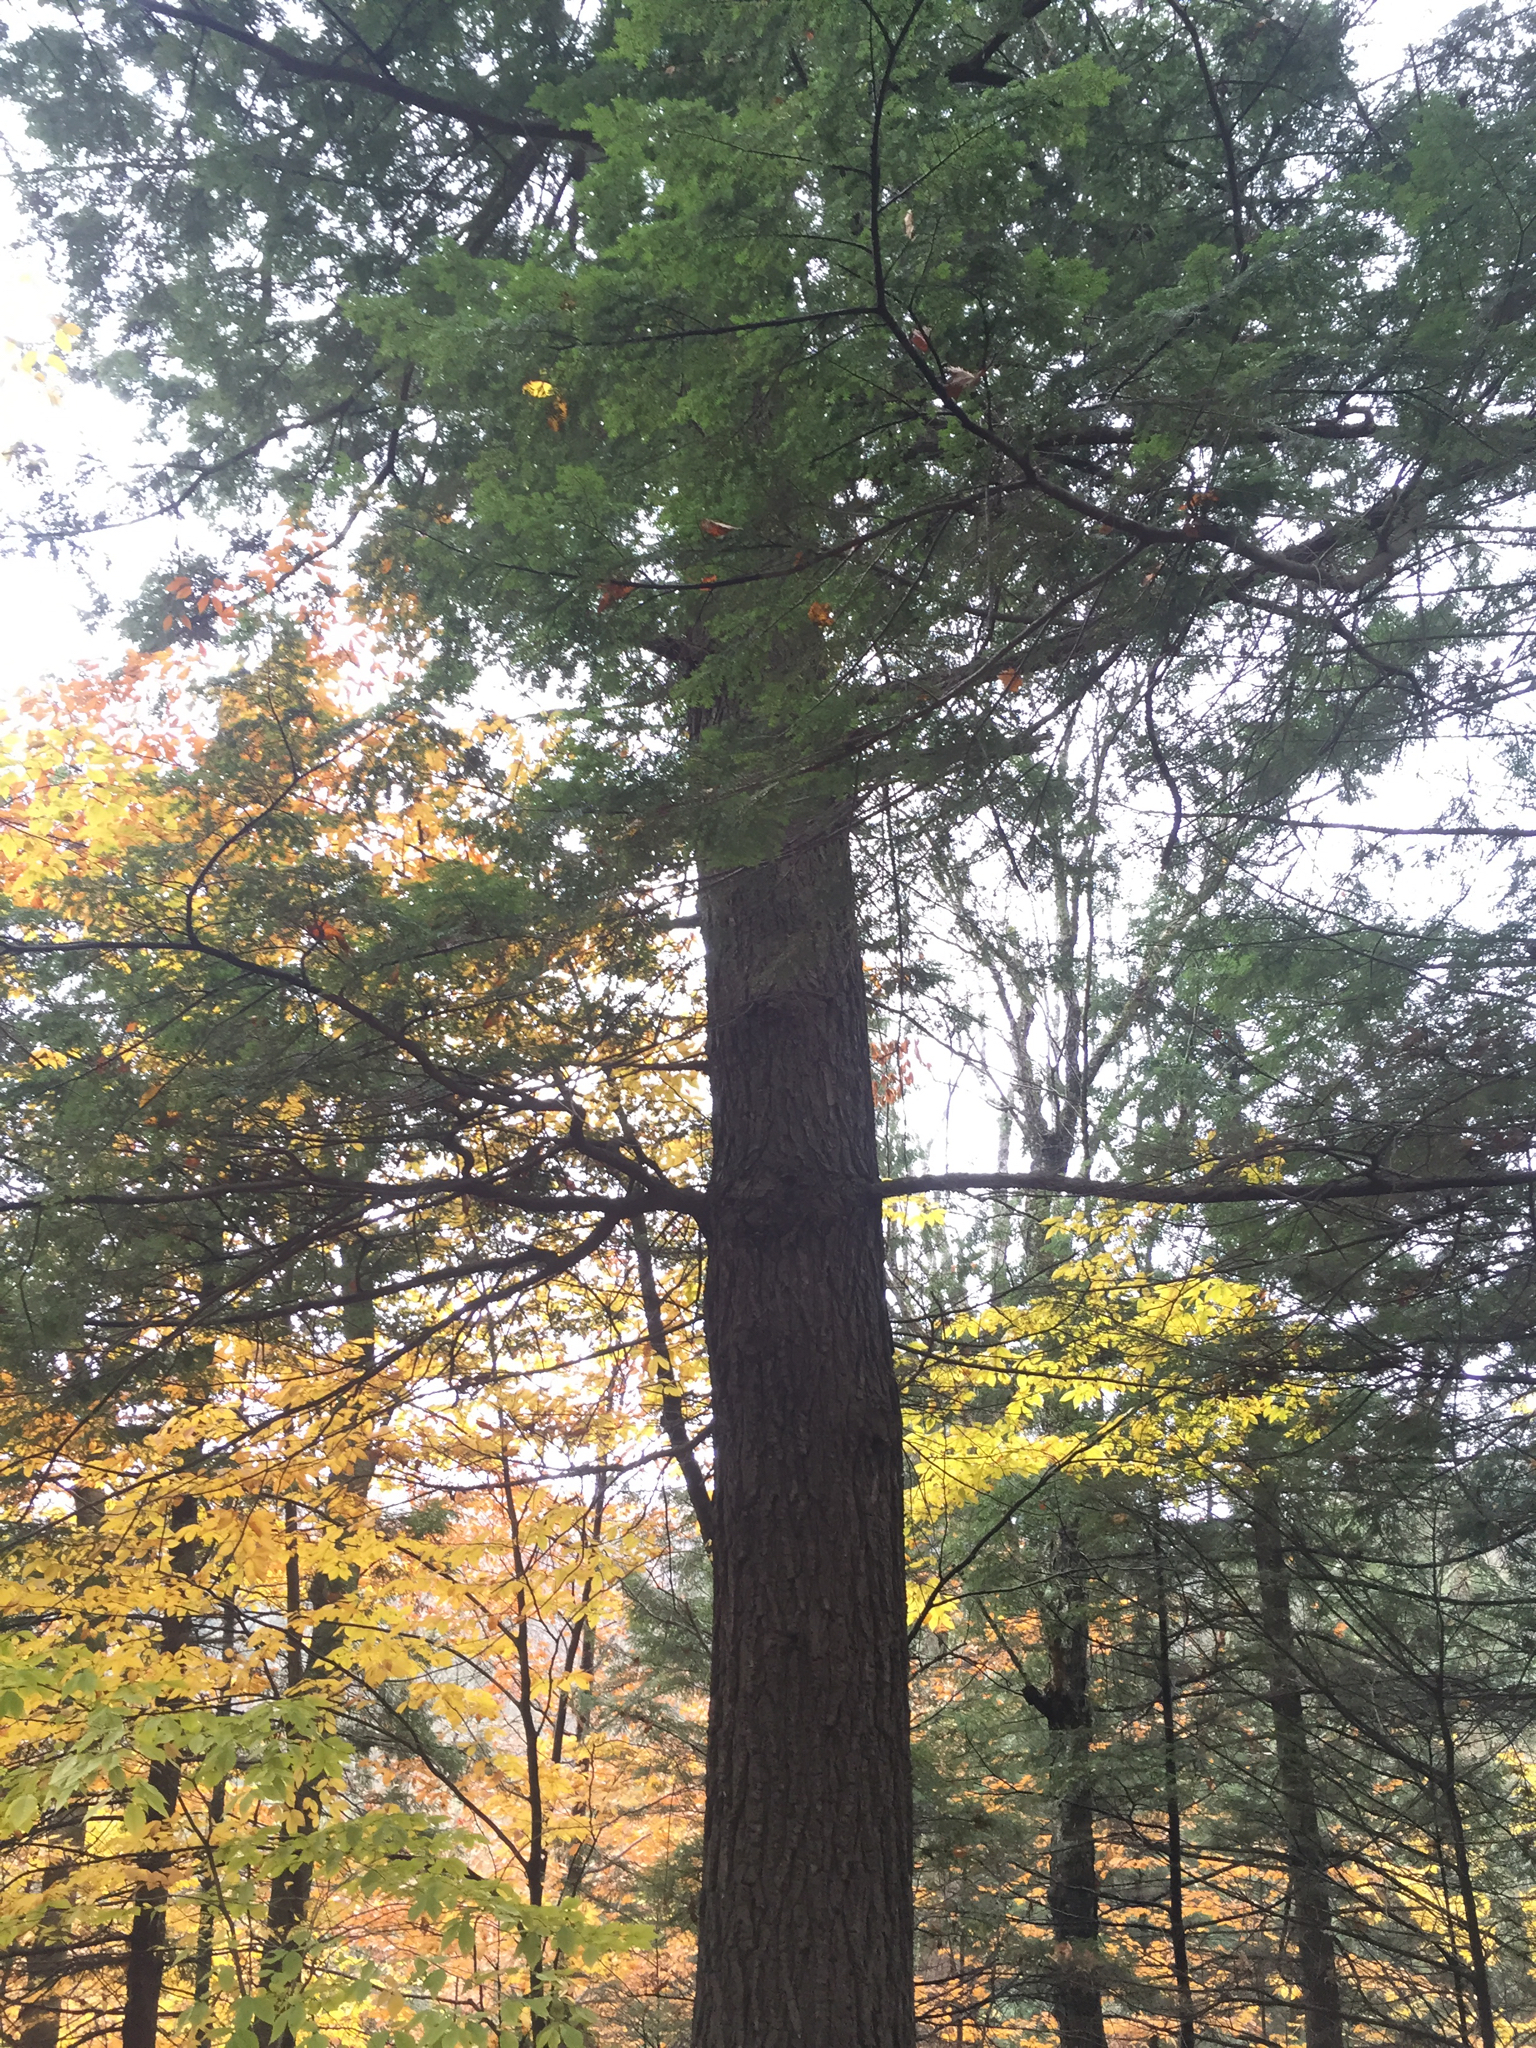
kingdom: Plantae
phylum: Tracheophyta
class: Pinopsida
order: Pinales
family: Pinaceae
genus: Tsuga
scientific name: Tsuga canadensis
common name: Eastern hemlock
